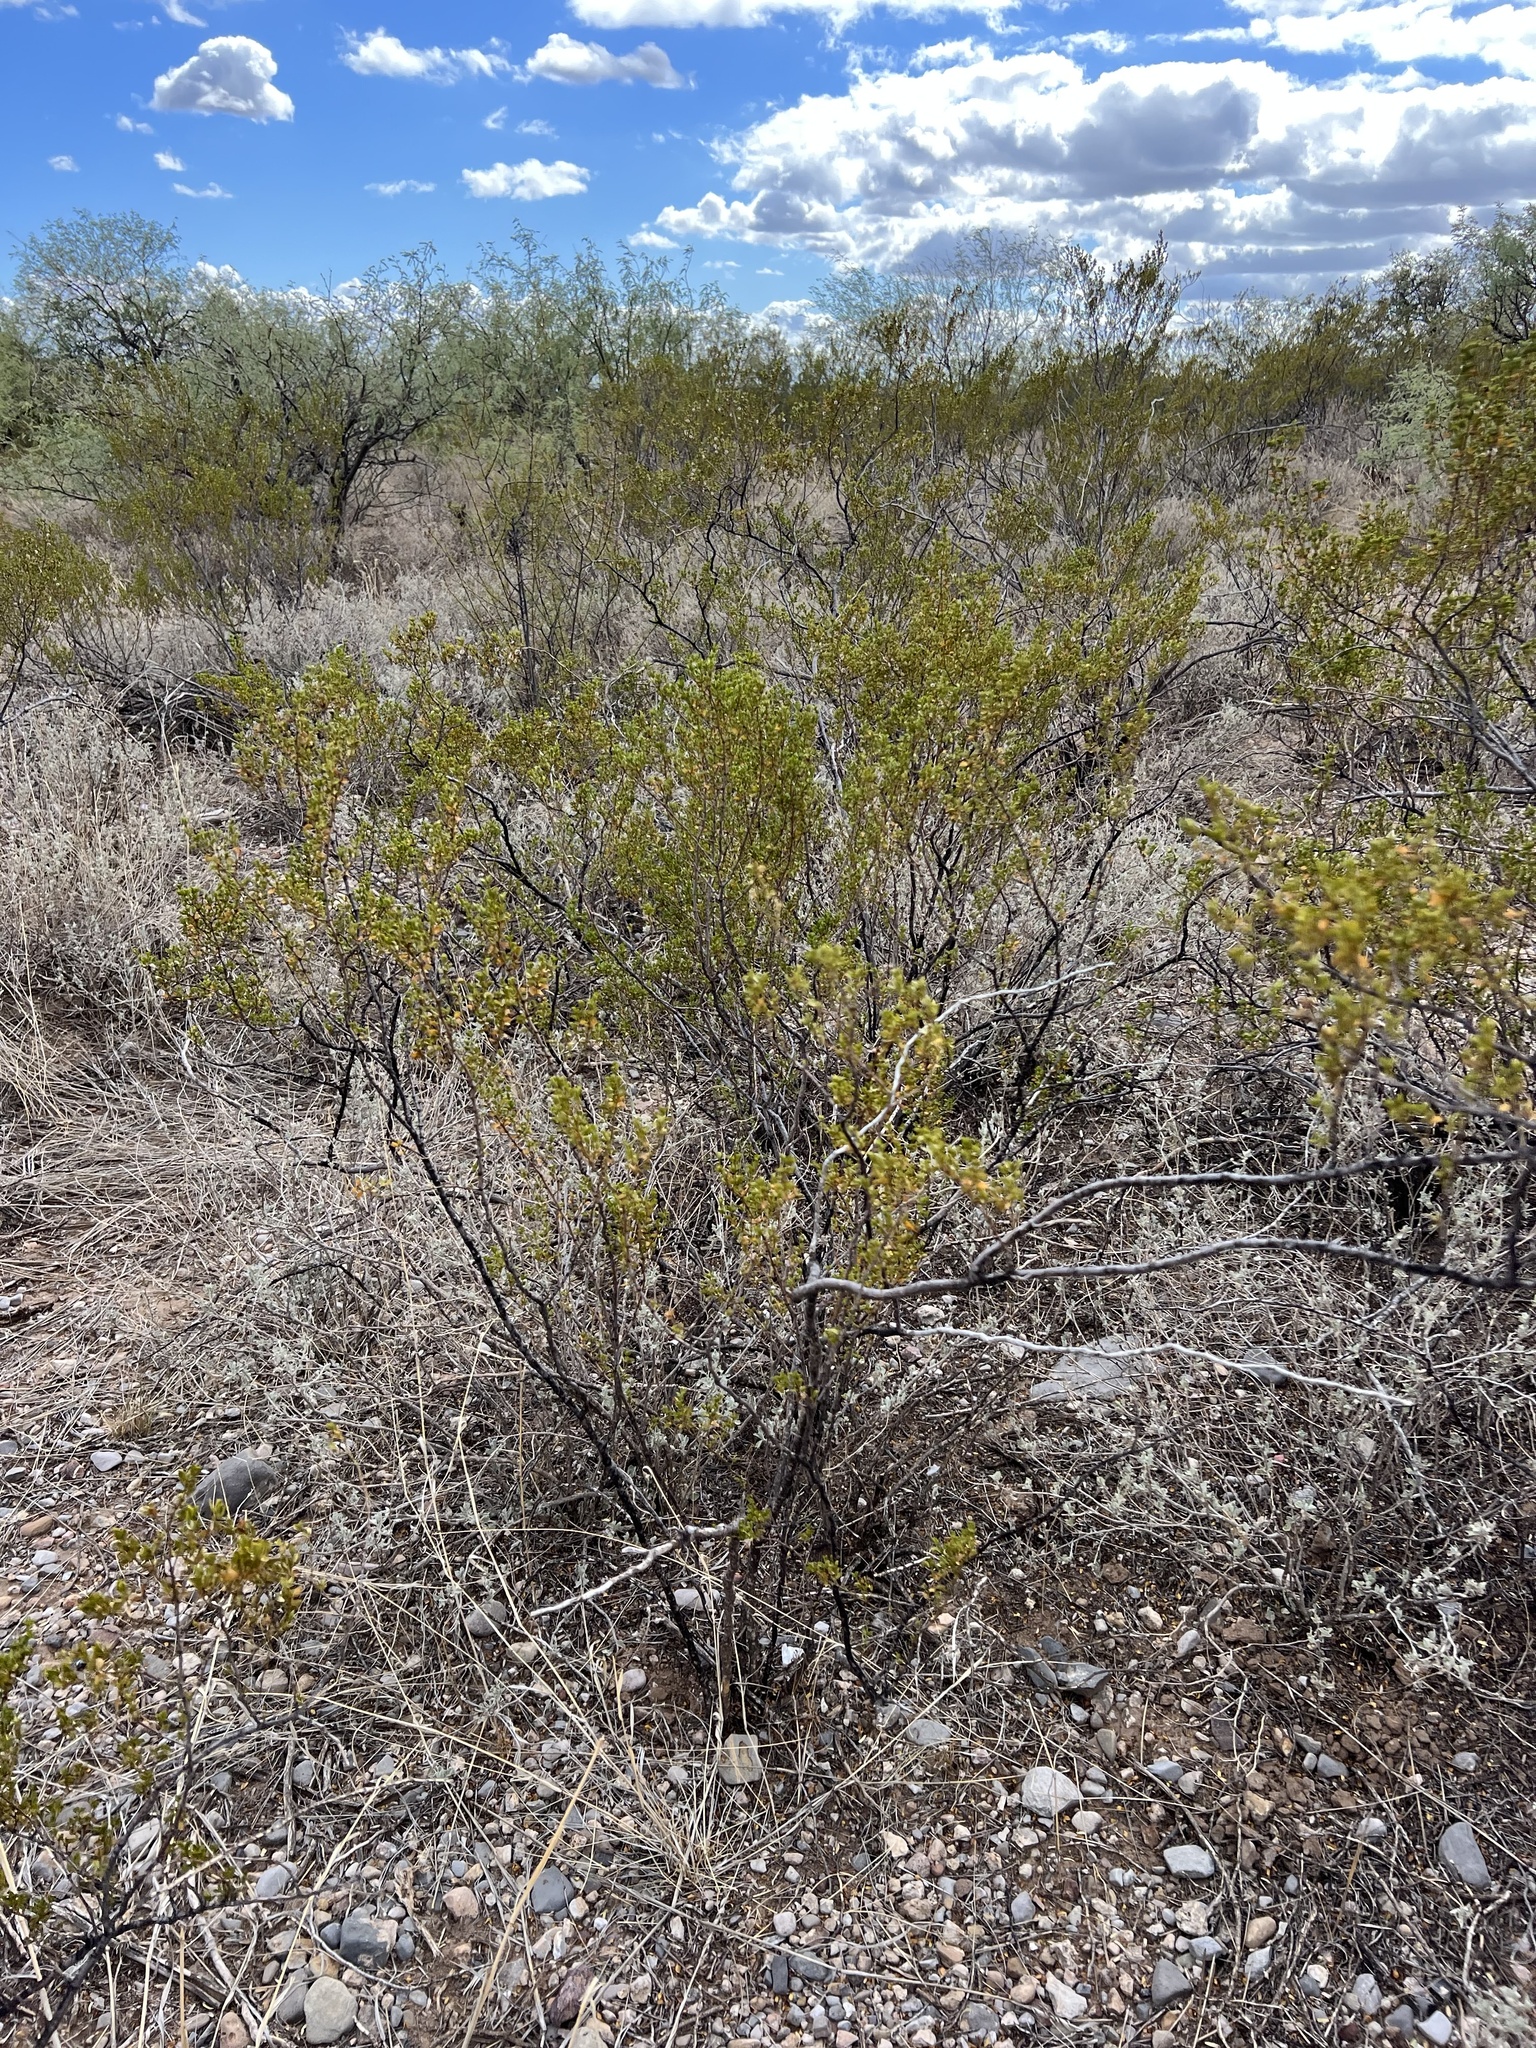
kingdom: Plantae
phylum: Tracheophyta
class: Magnoliopsida
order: Zygophyllales
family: Zygophyllaceae
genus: Larrea
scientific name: Larrea tridentata
